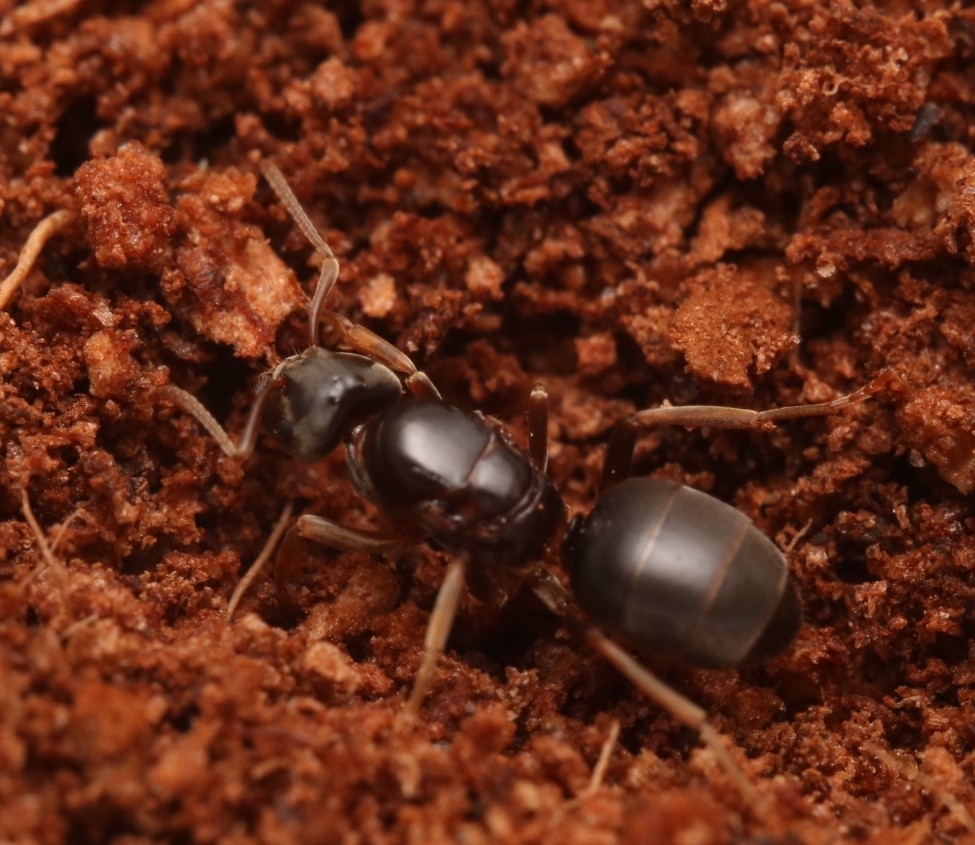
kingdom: Animalia
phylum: Arthropoda
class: Insecta
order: Hymenoptera
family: Formicidae
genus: Lasius
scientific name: Lasius aphidicola
